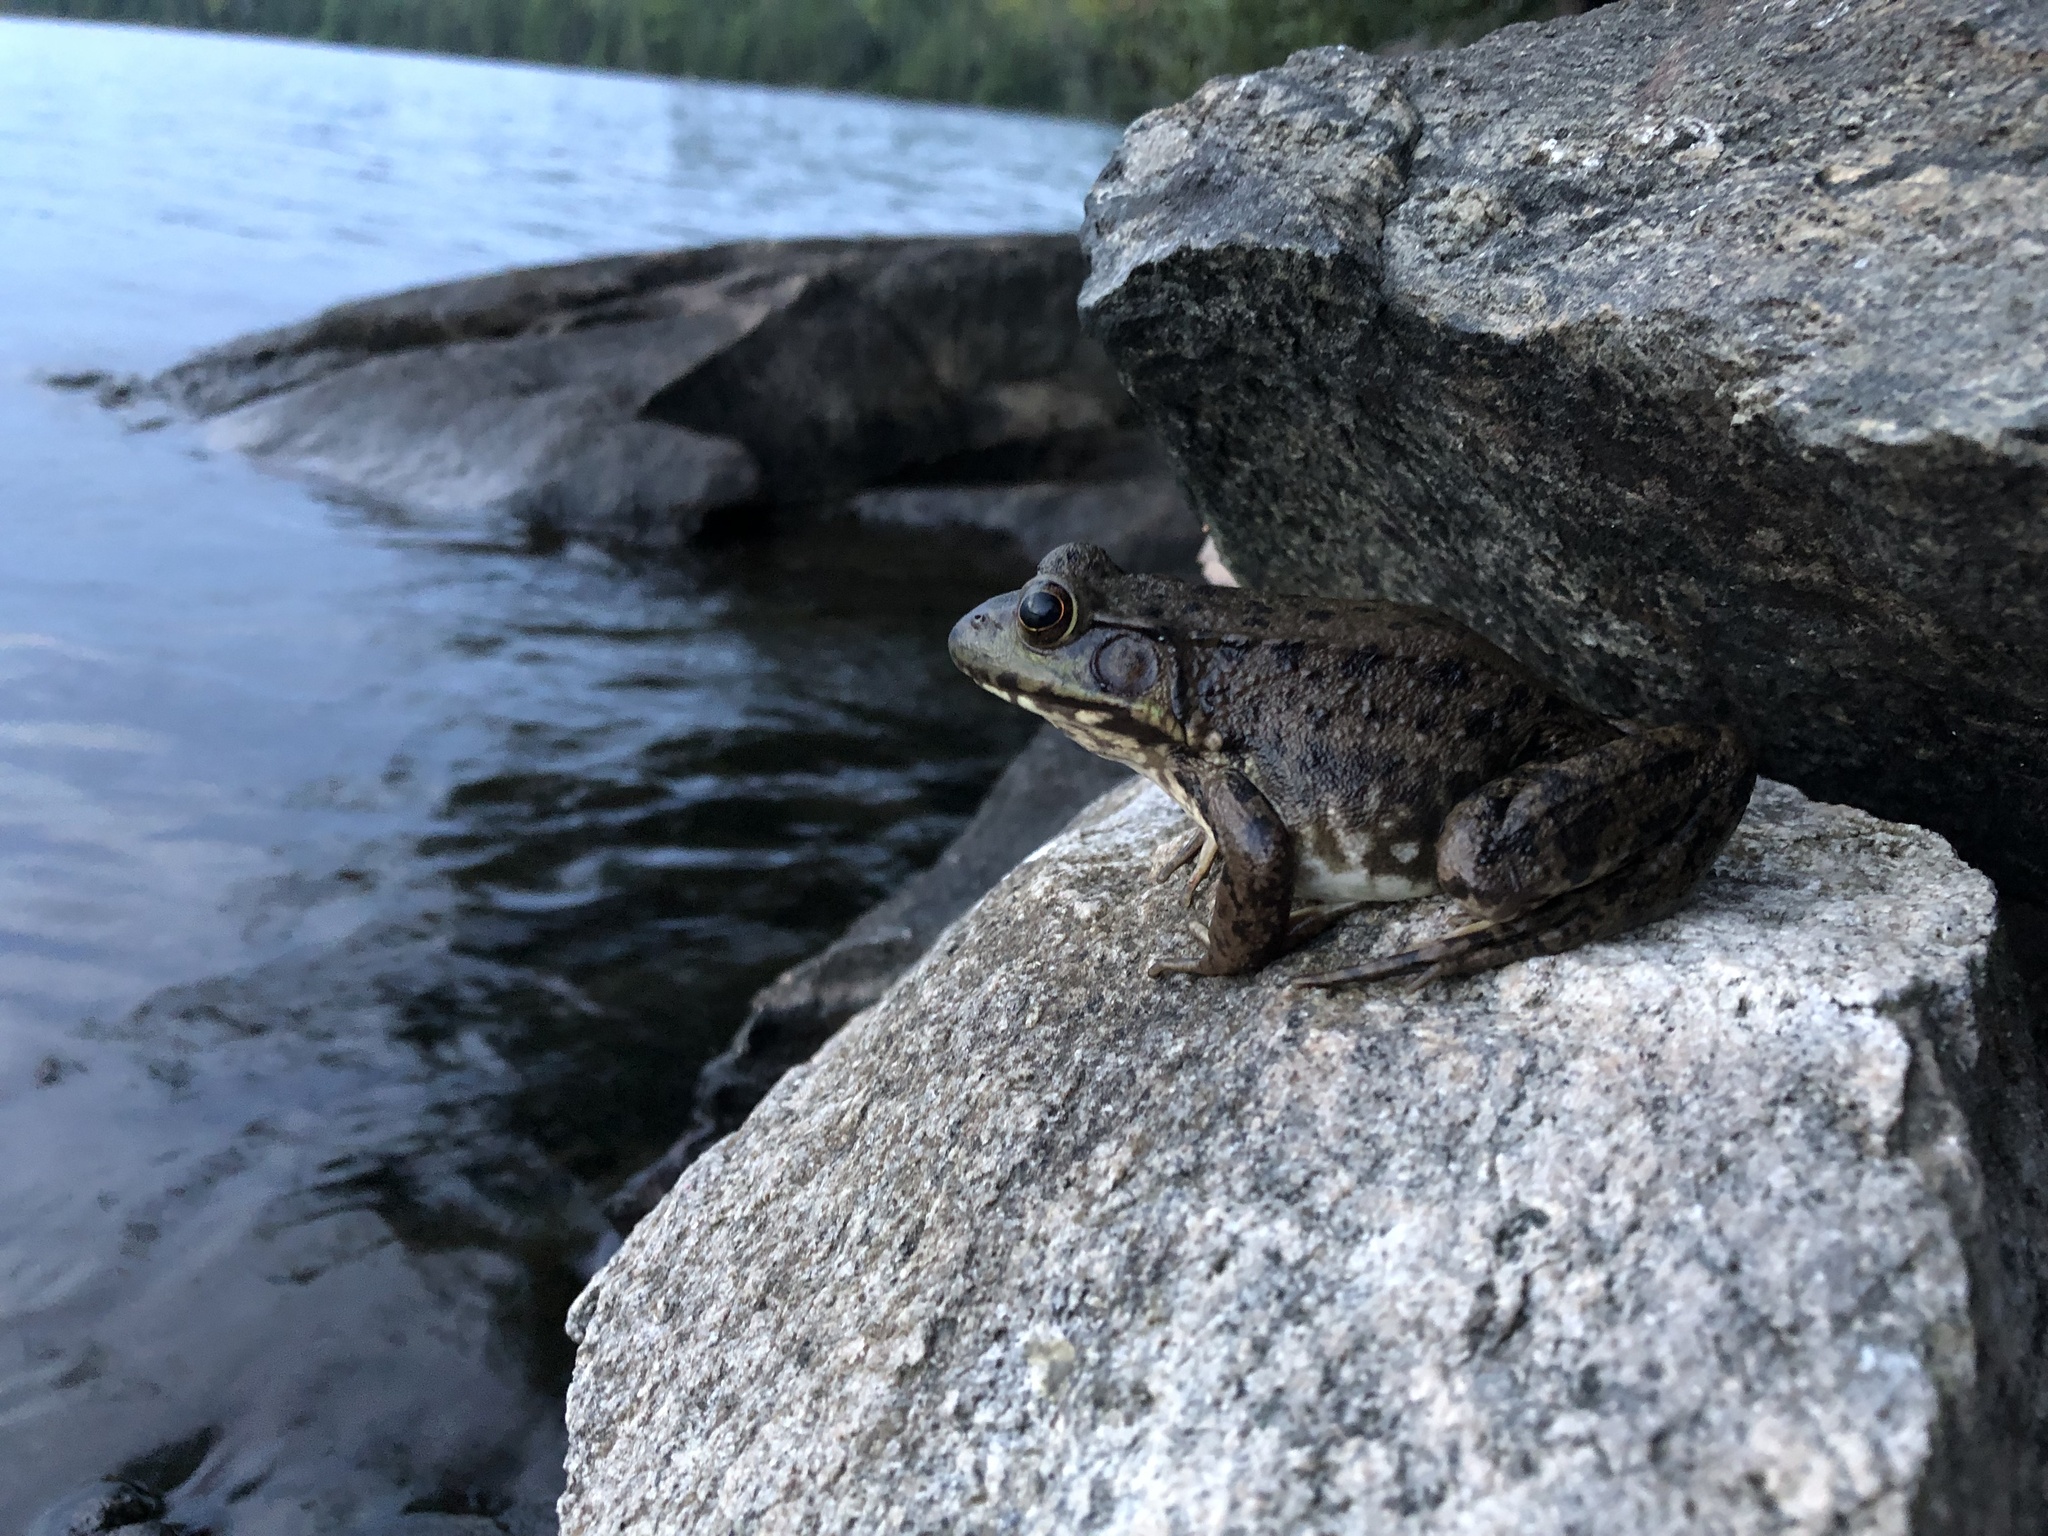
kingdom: Animalia
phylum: Chordata
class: Amphibia
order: Anura
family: Ranidae
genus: Lithobates
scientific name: Lithobates clamitans
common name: Green frog
